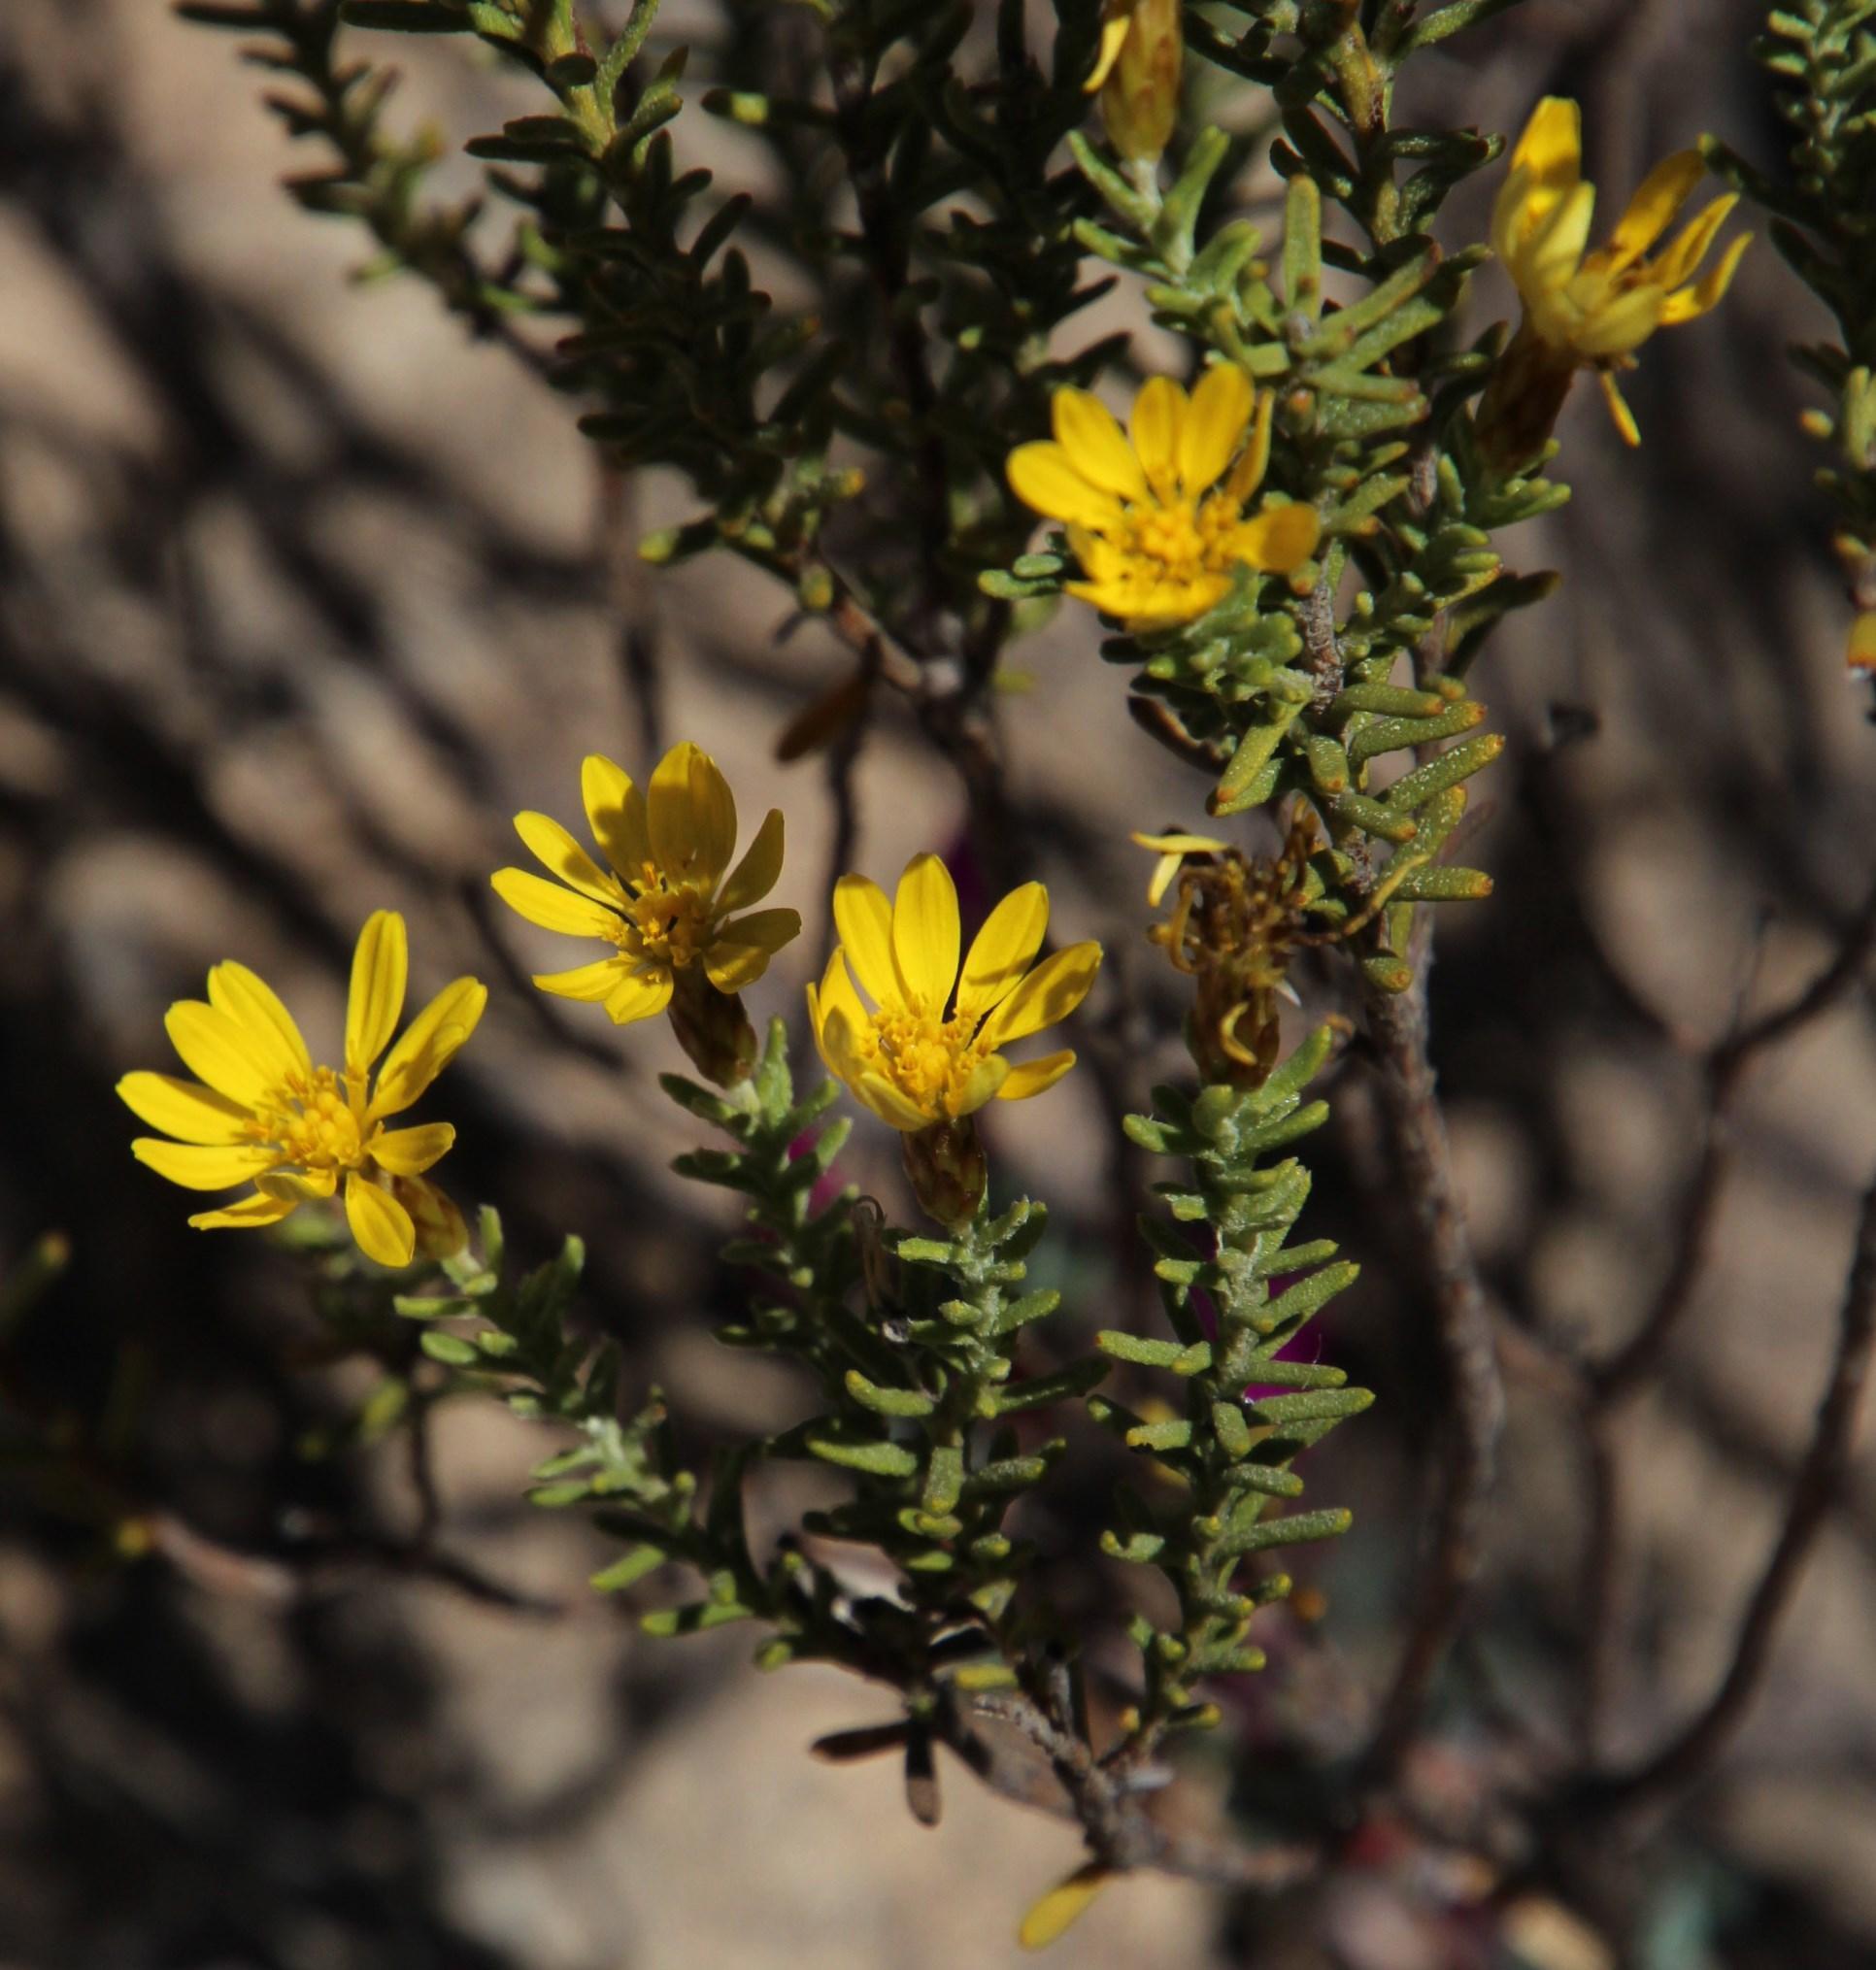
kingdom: Plantae
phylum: Tracheophyta
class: Magnoliopsida
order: Asterales
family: Asteraceae
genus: Oedera
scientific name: Oedera sedifolia
